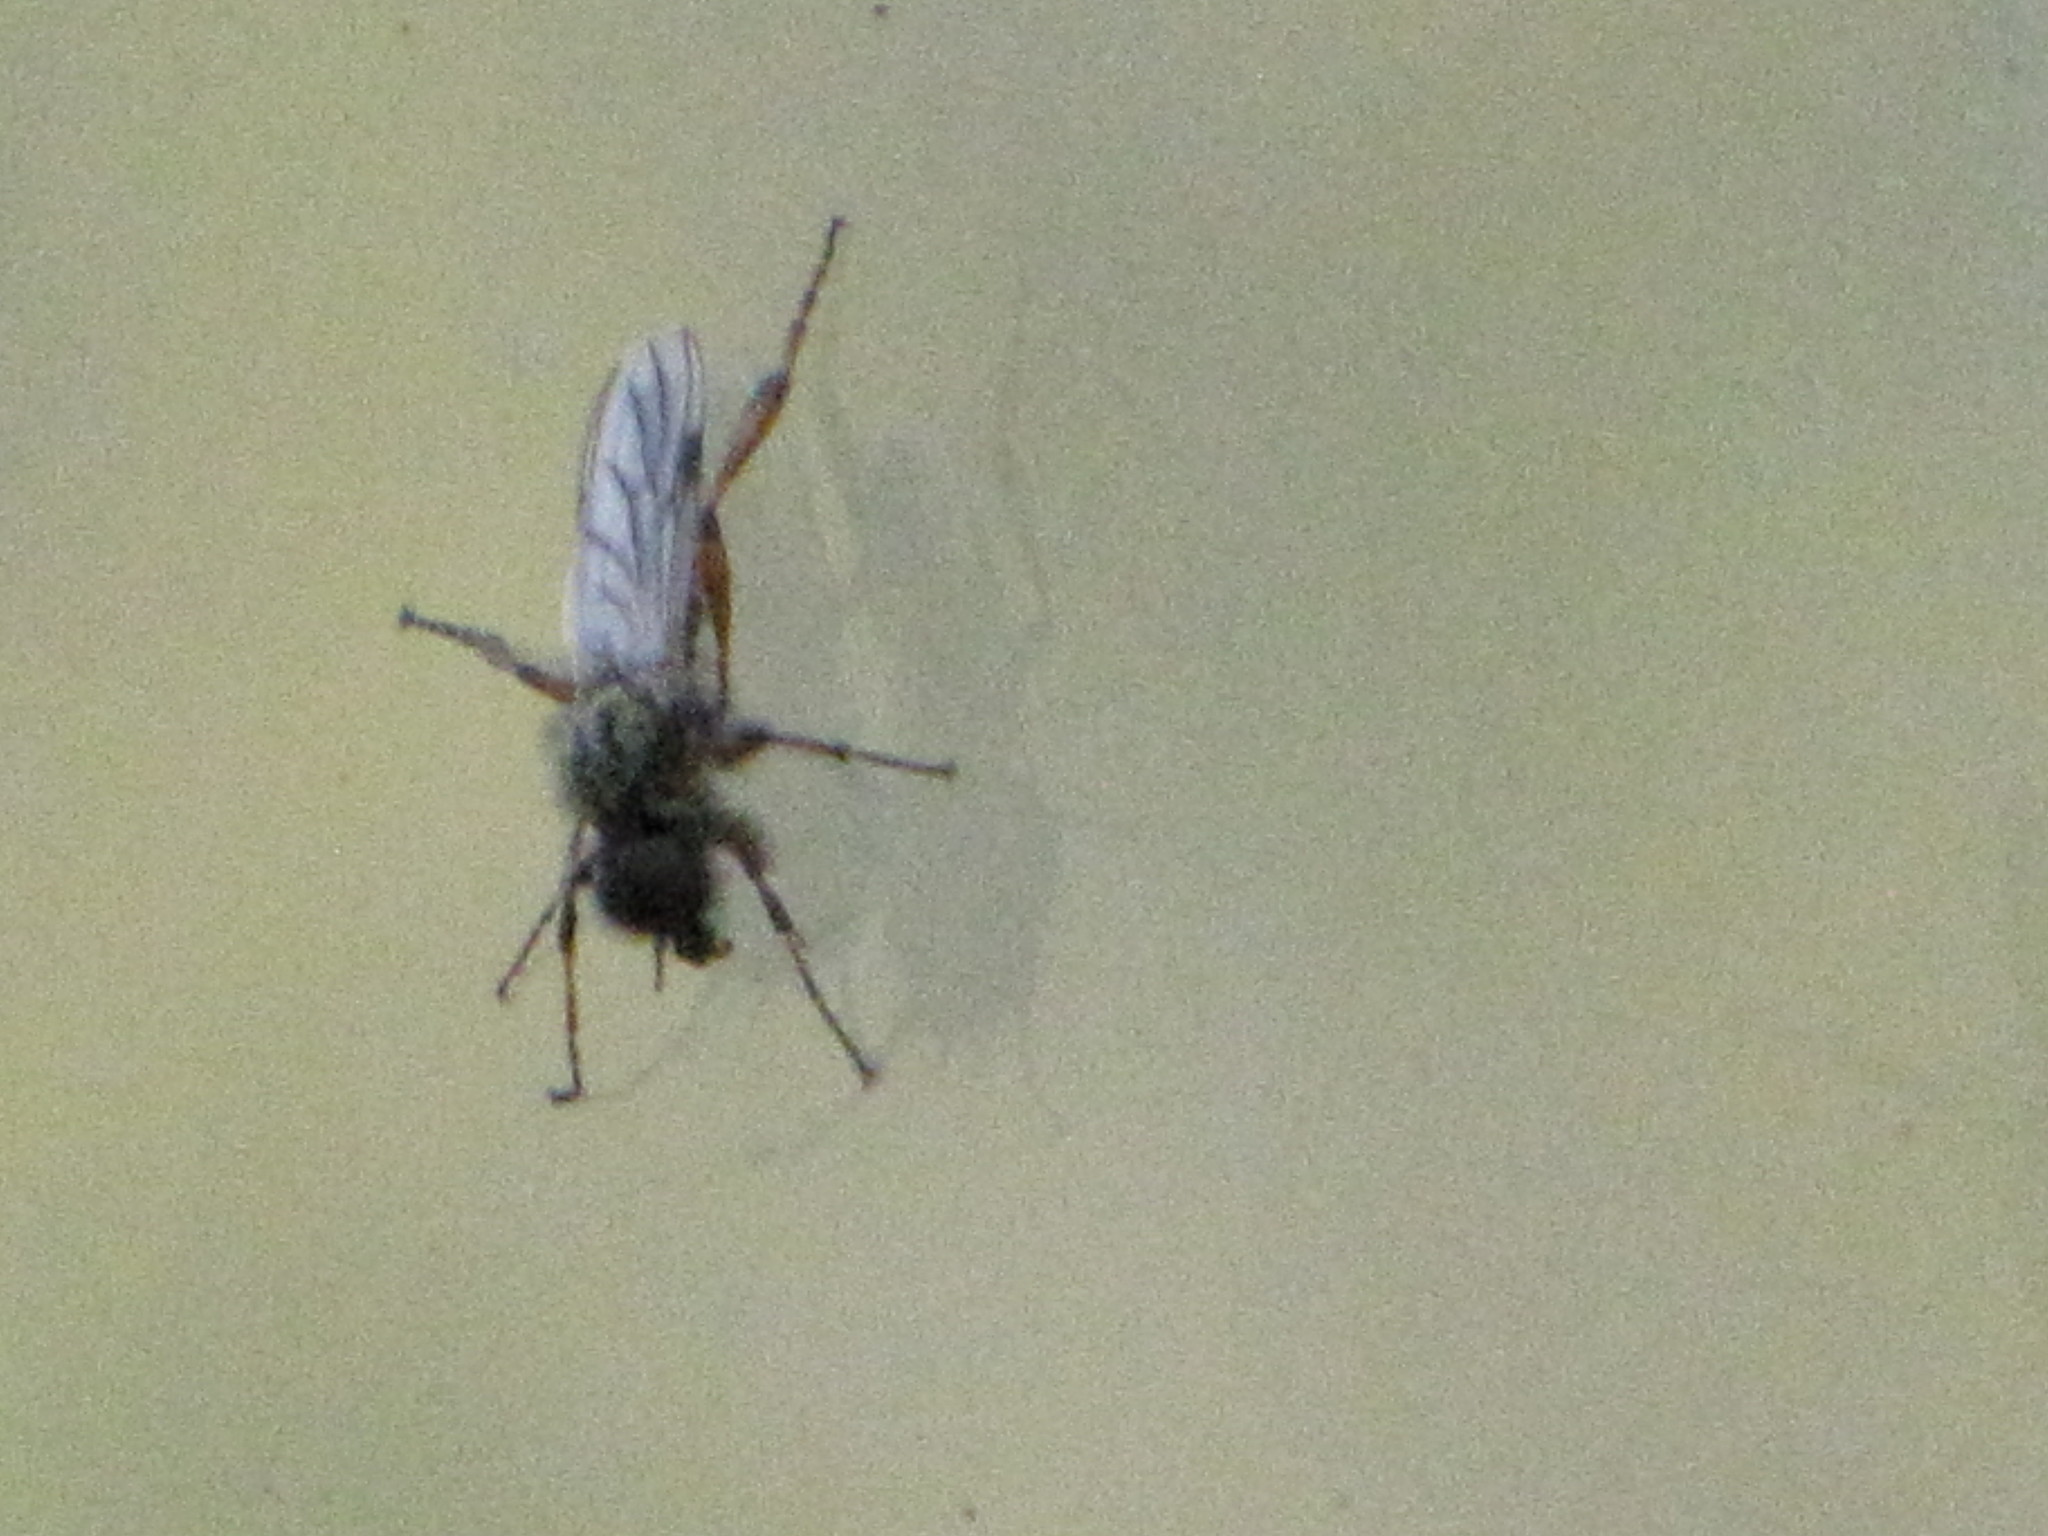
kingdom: Animalia
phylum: Arthropoda
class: Insecta
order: Diptera
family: Bibionidae
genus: Bibio
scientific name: Bibio
